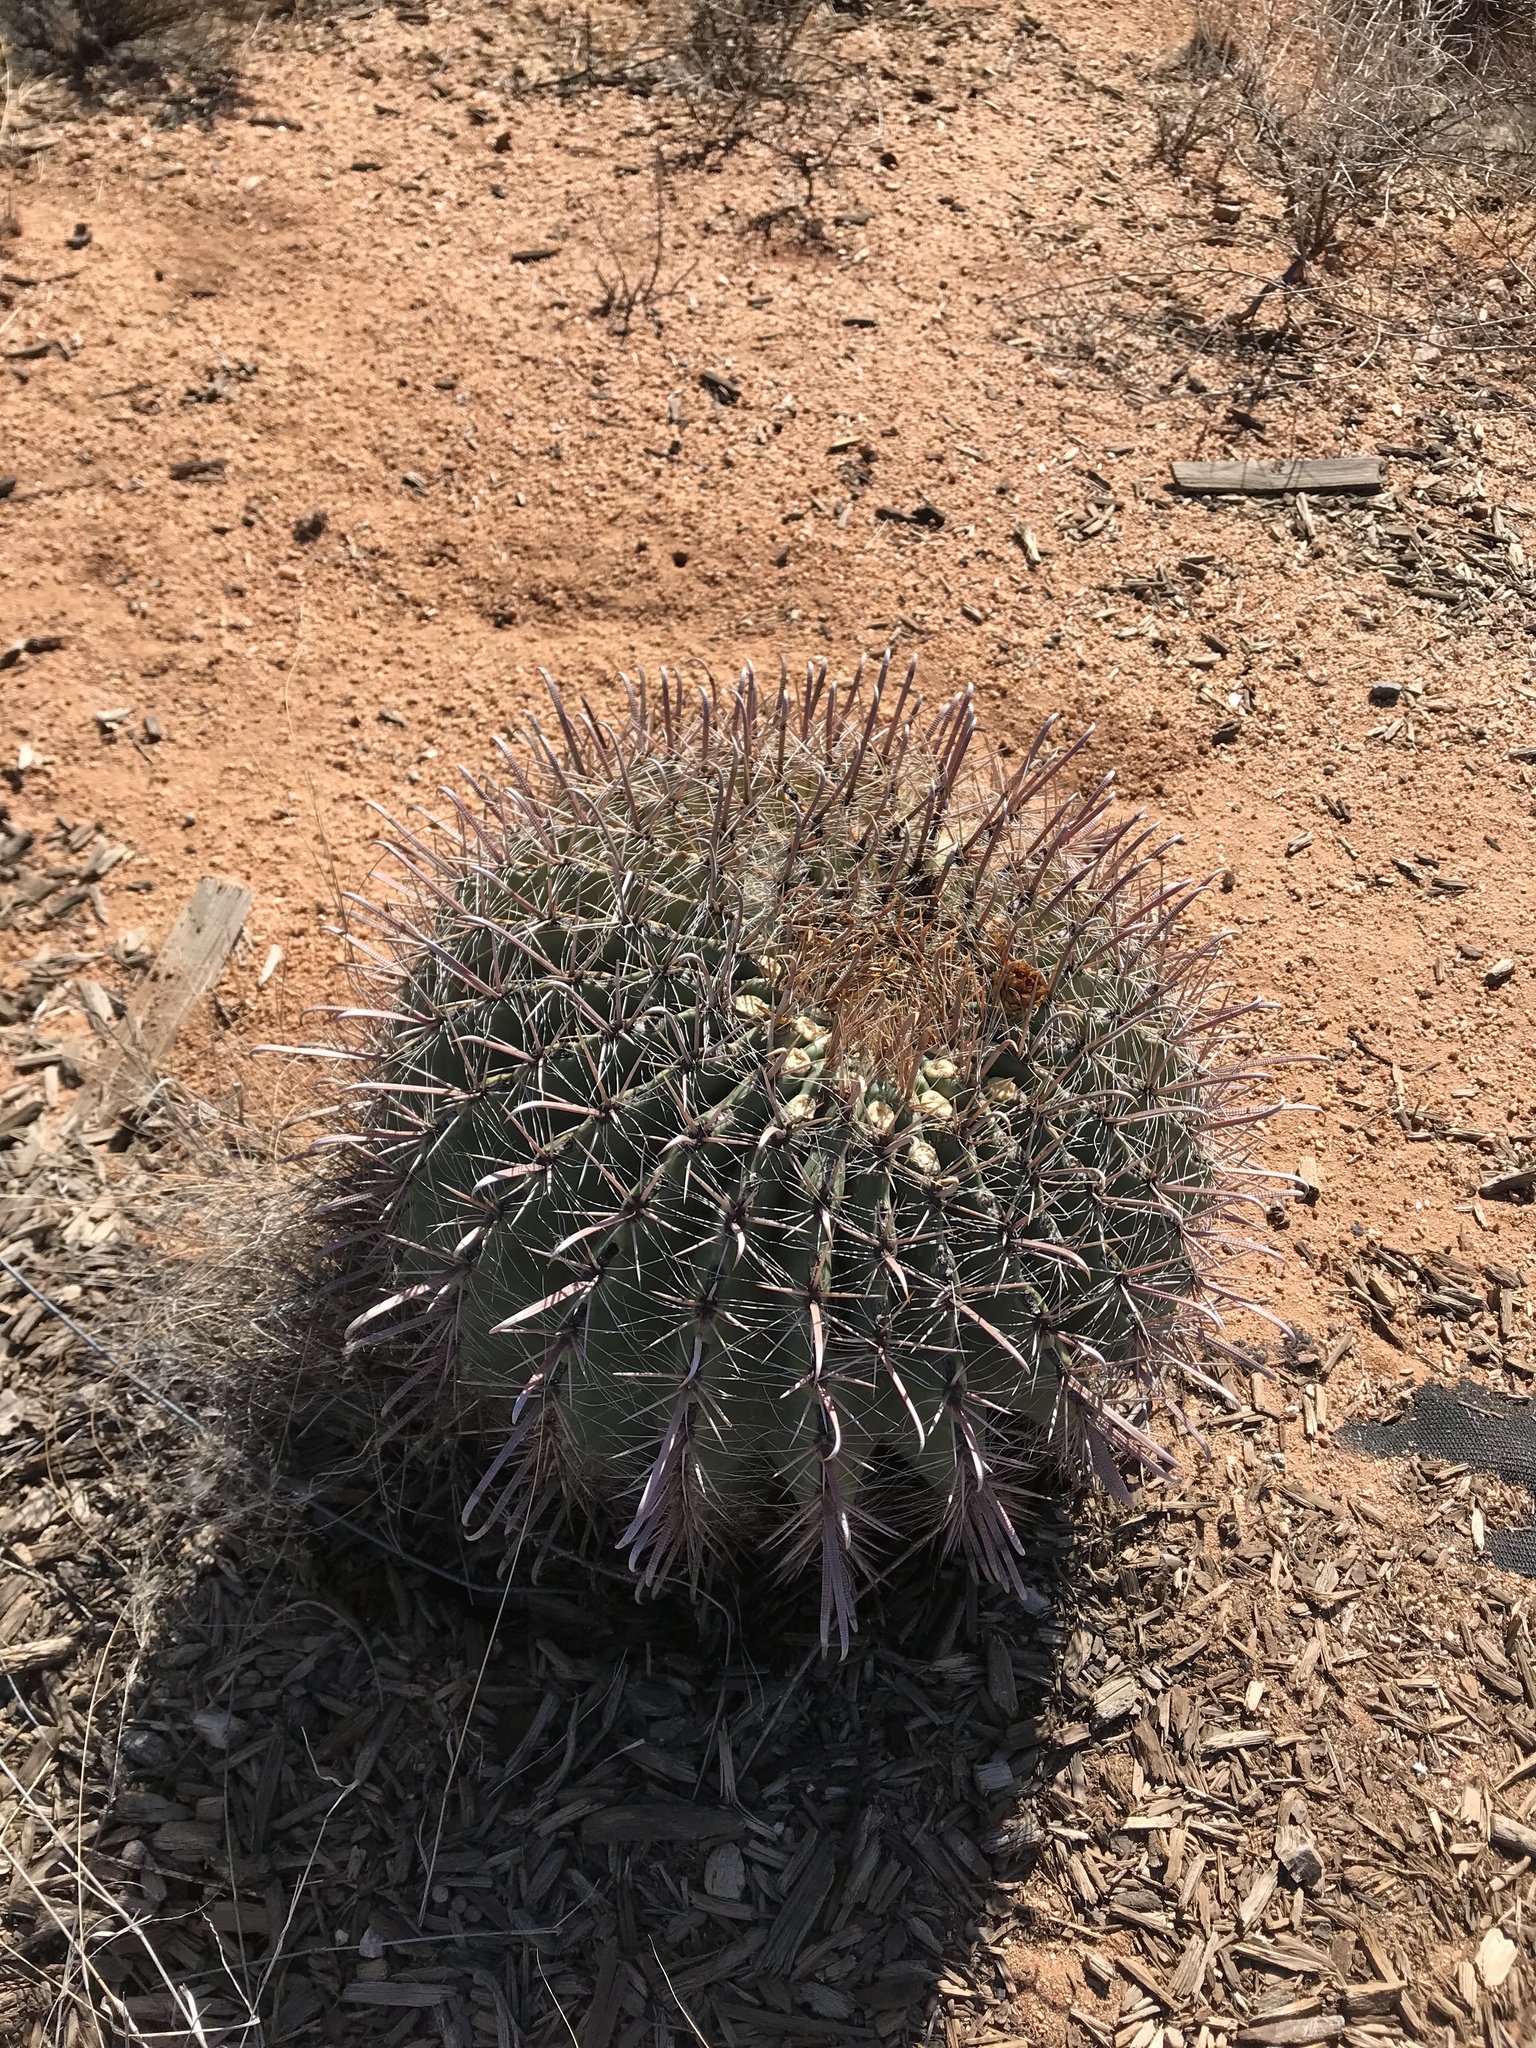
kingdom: Plantae
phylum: Tracheophyta
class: Magnoliopsida
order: Caryophyllales
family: Cactaceae
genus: Ferocactus
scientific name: Ferocactus wislizeni
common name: Candy barrel cactus
